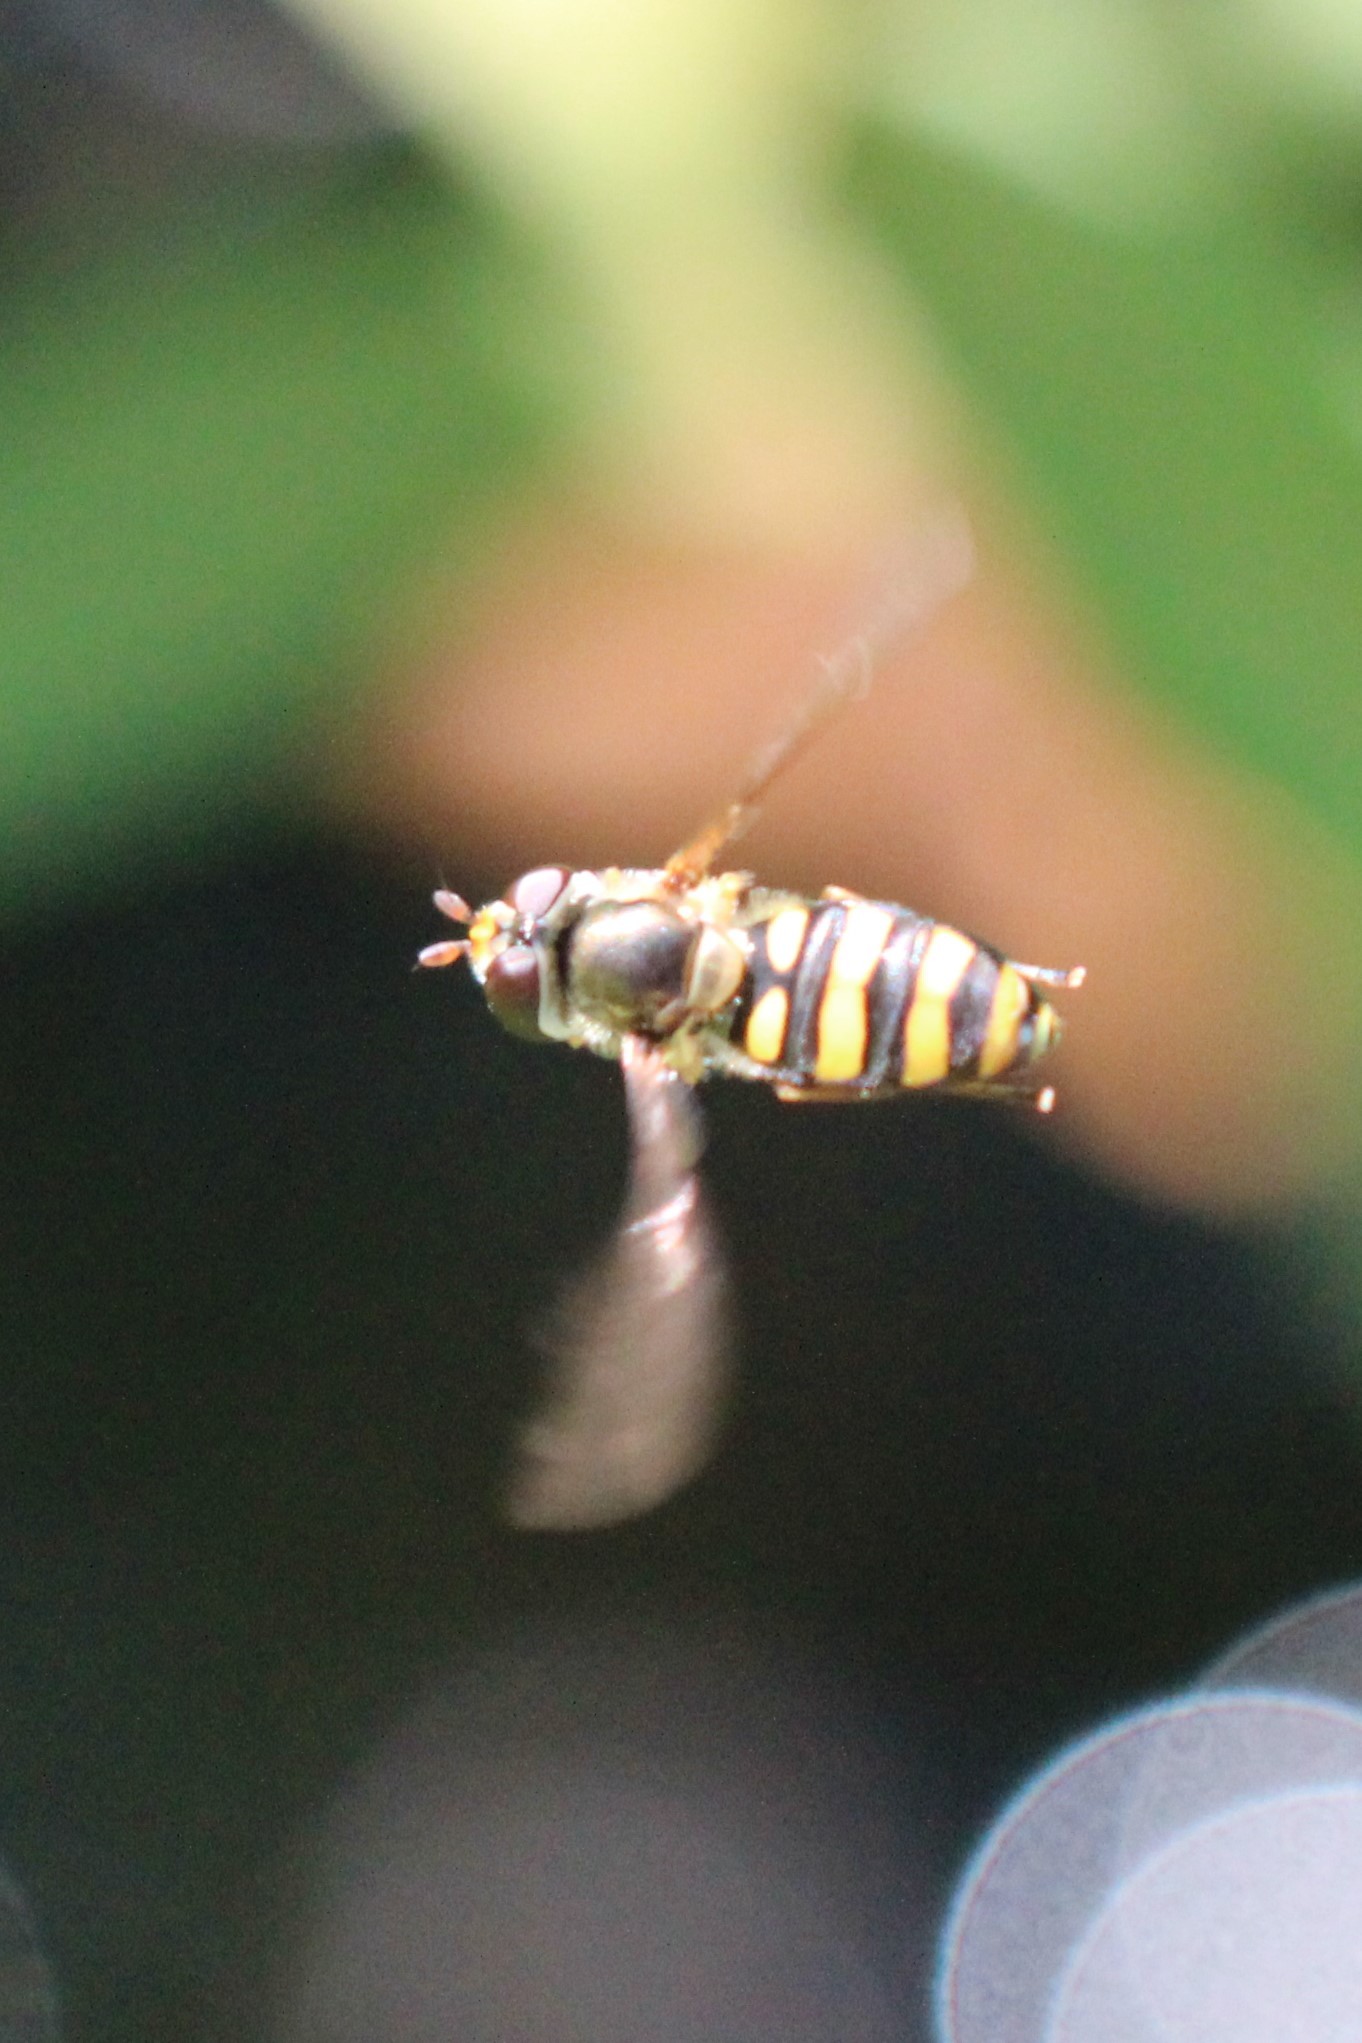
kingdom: Animalia
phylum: Arthropoda
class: Insecta
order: Diptera
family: Syrphidae
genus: Eupeodes
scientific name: Eupeodes
